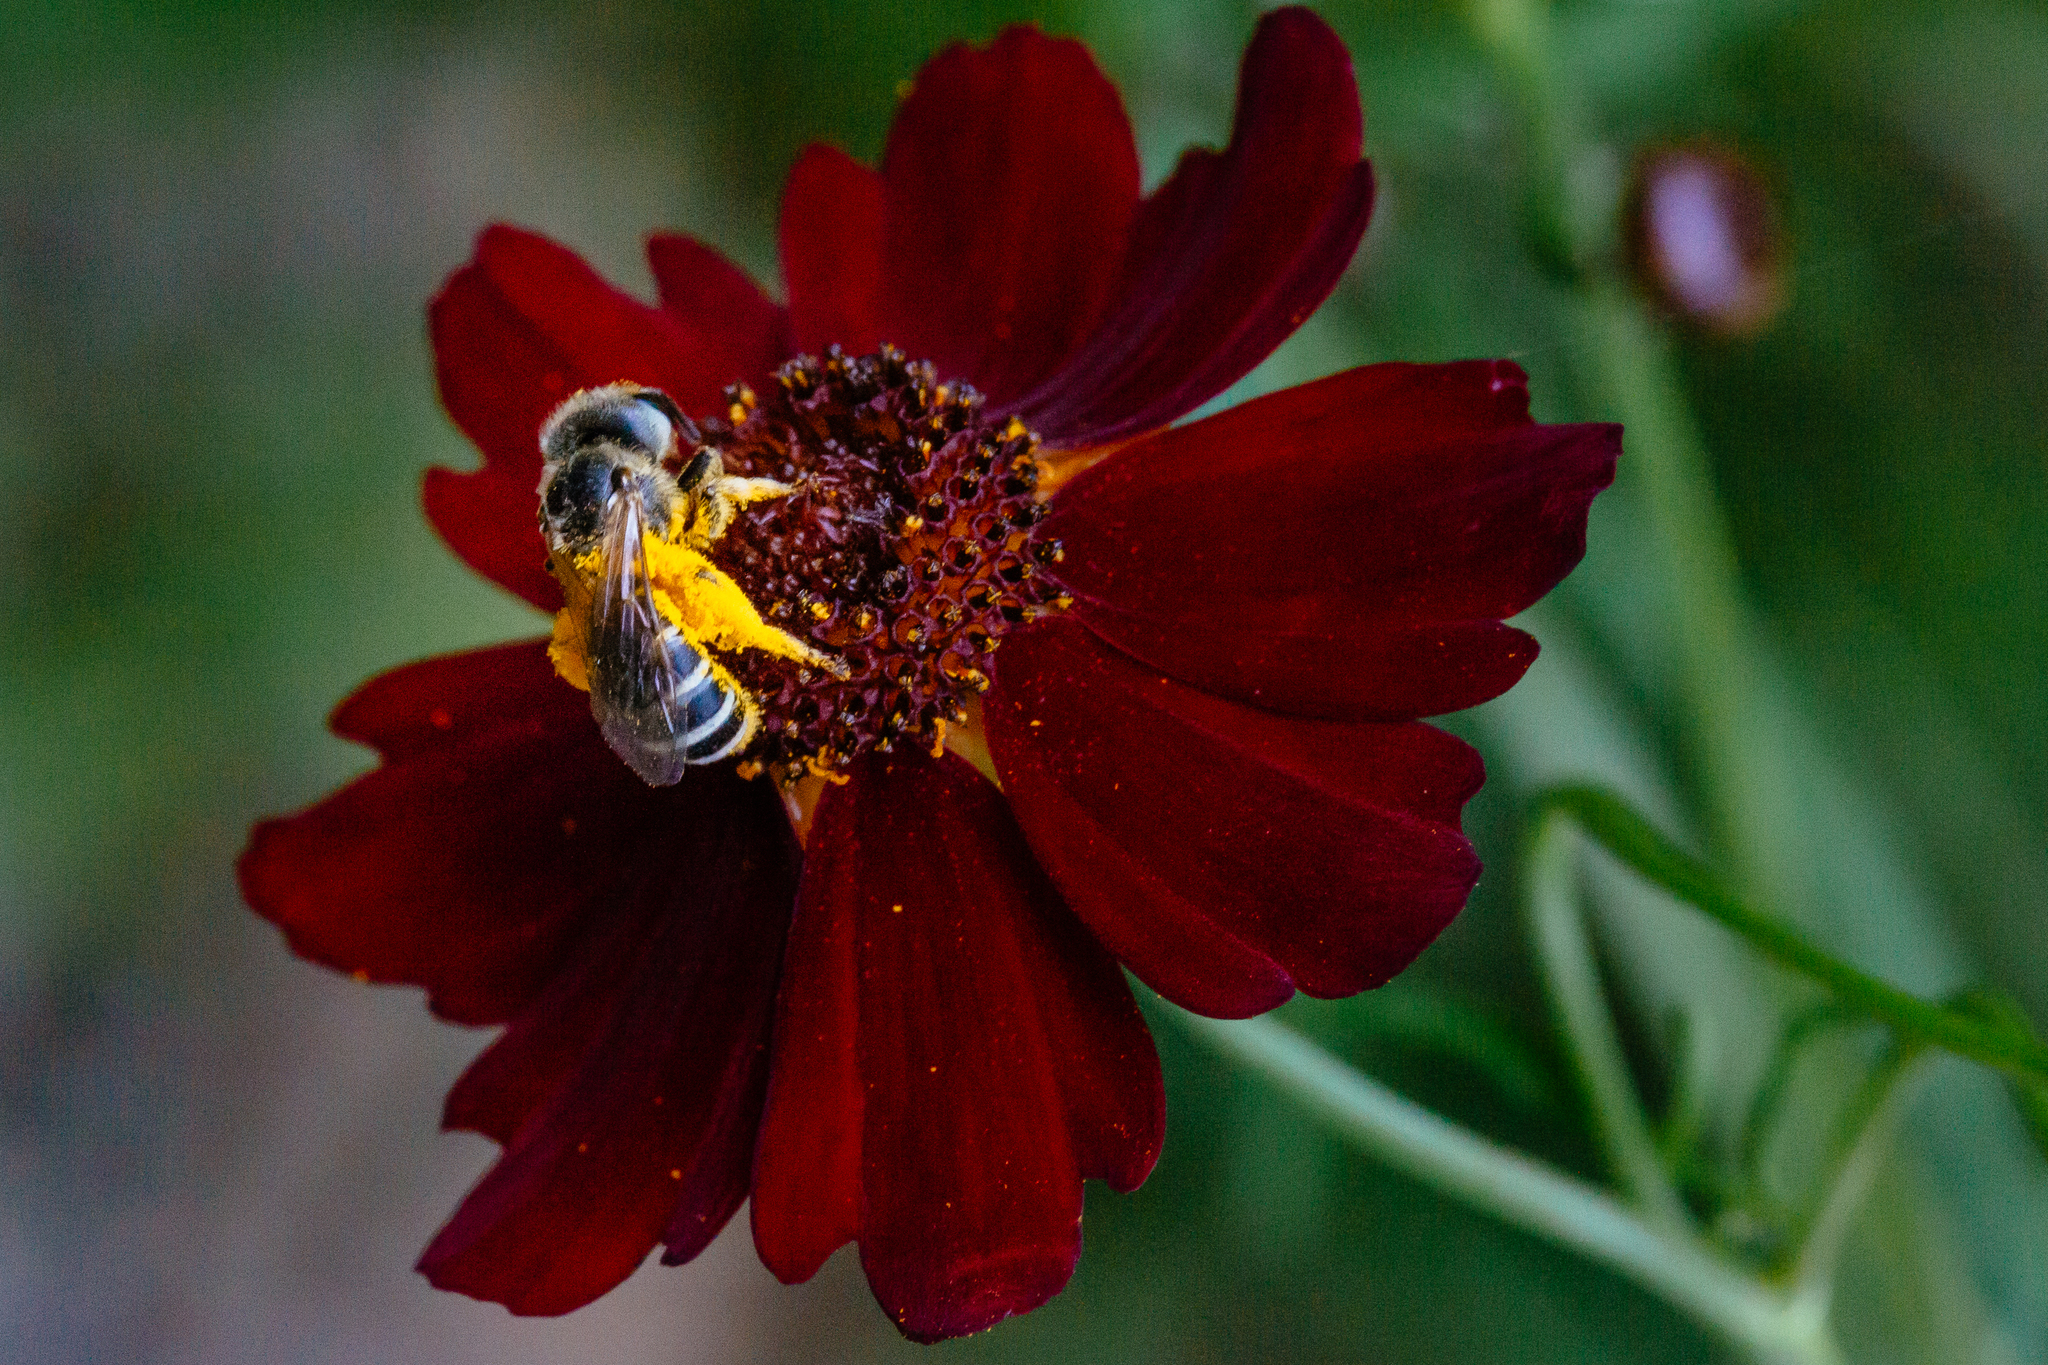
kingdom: Animalia
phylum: Arthropoda
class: Insecta
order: Hymenoptera
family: Halictidae
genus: Halictus
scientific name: Halictus ligatus
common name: Ligated furrow bee
